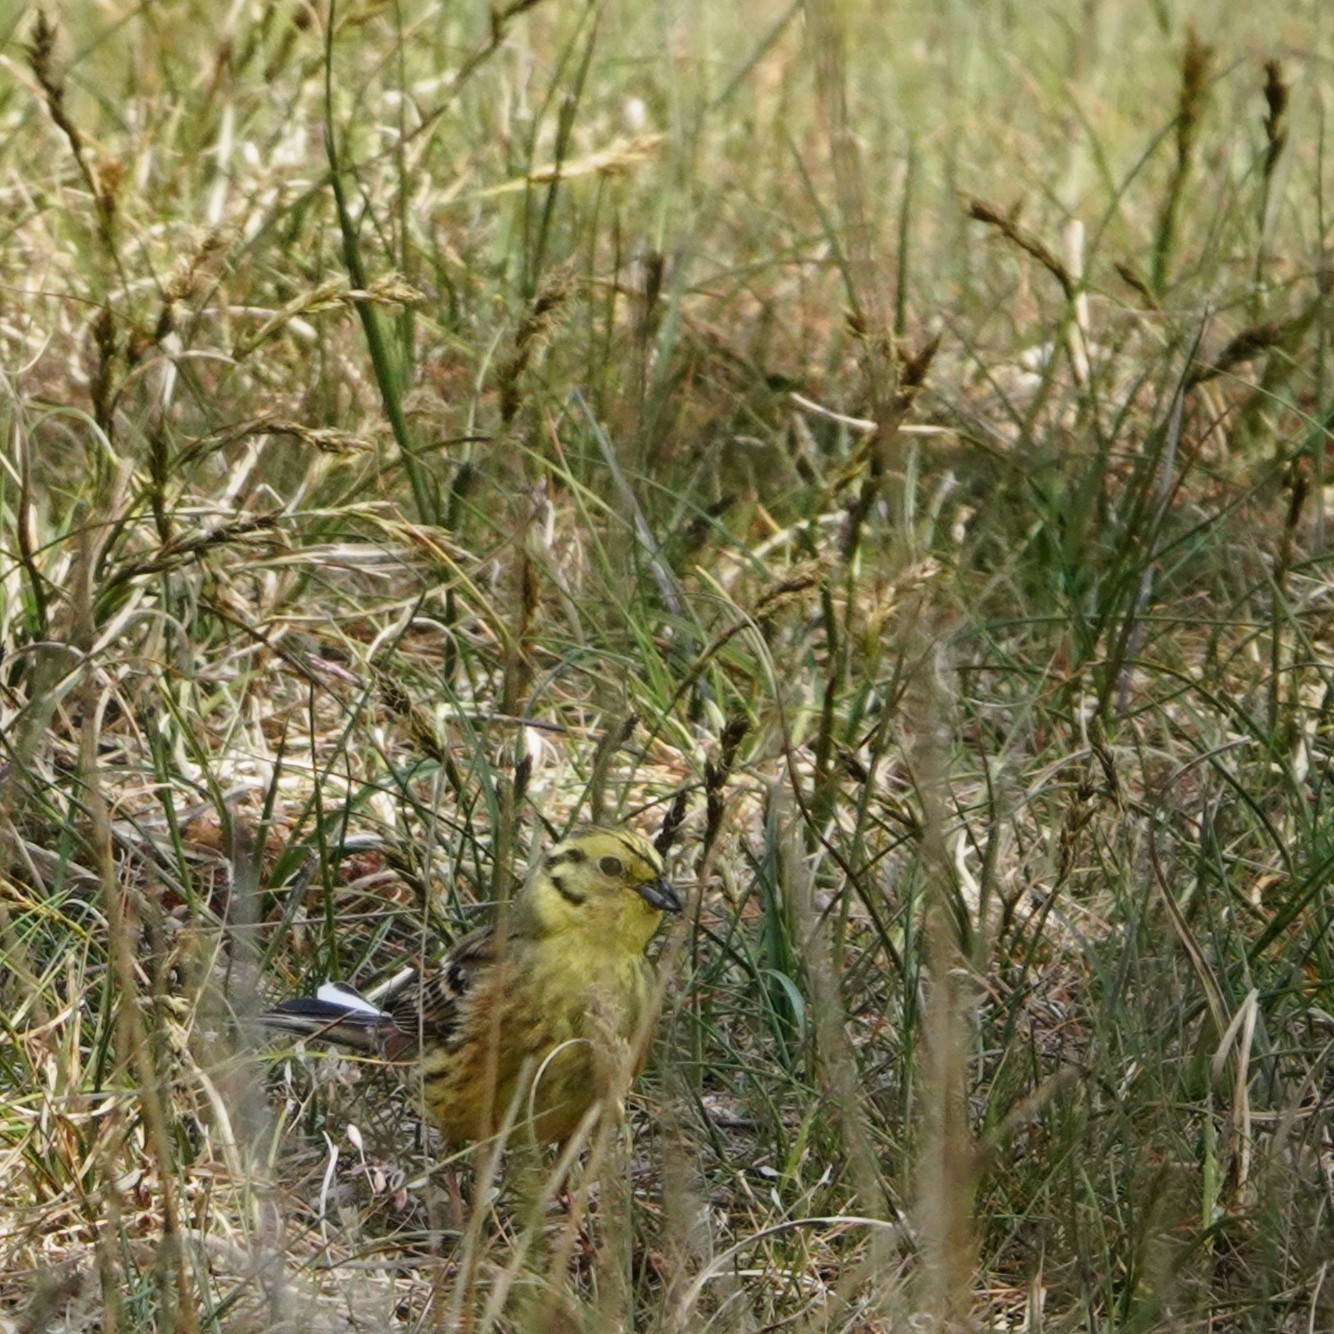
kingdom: Animalia
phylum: Chordata
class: Aves
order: Passeriformes
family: Emberizidae
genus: Emberiza
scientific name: Emberiza citrinella
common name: Yellowhammer
